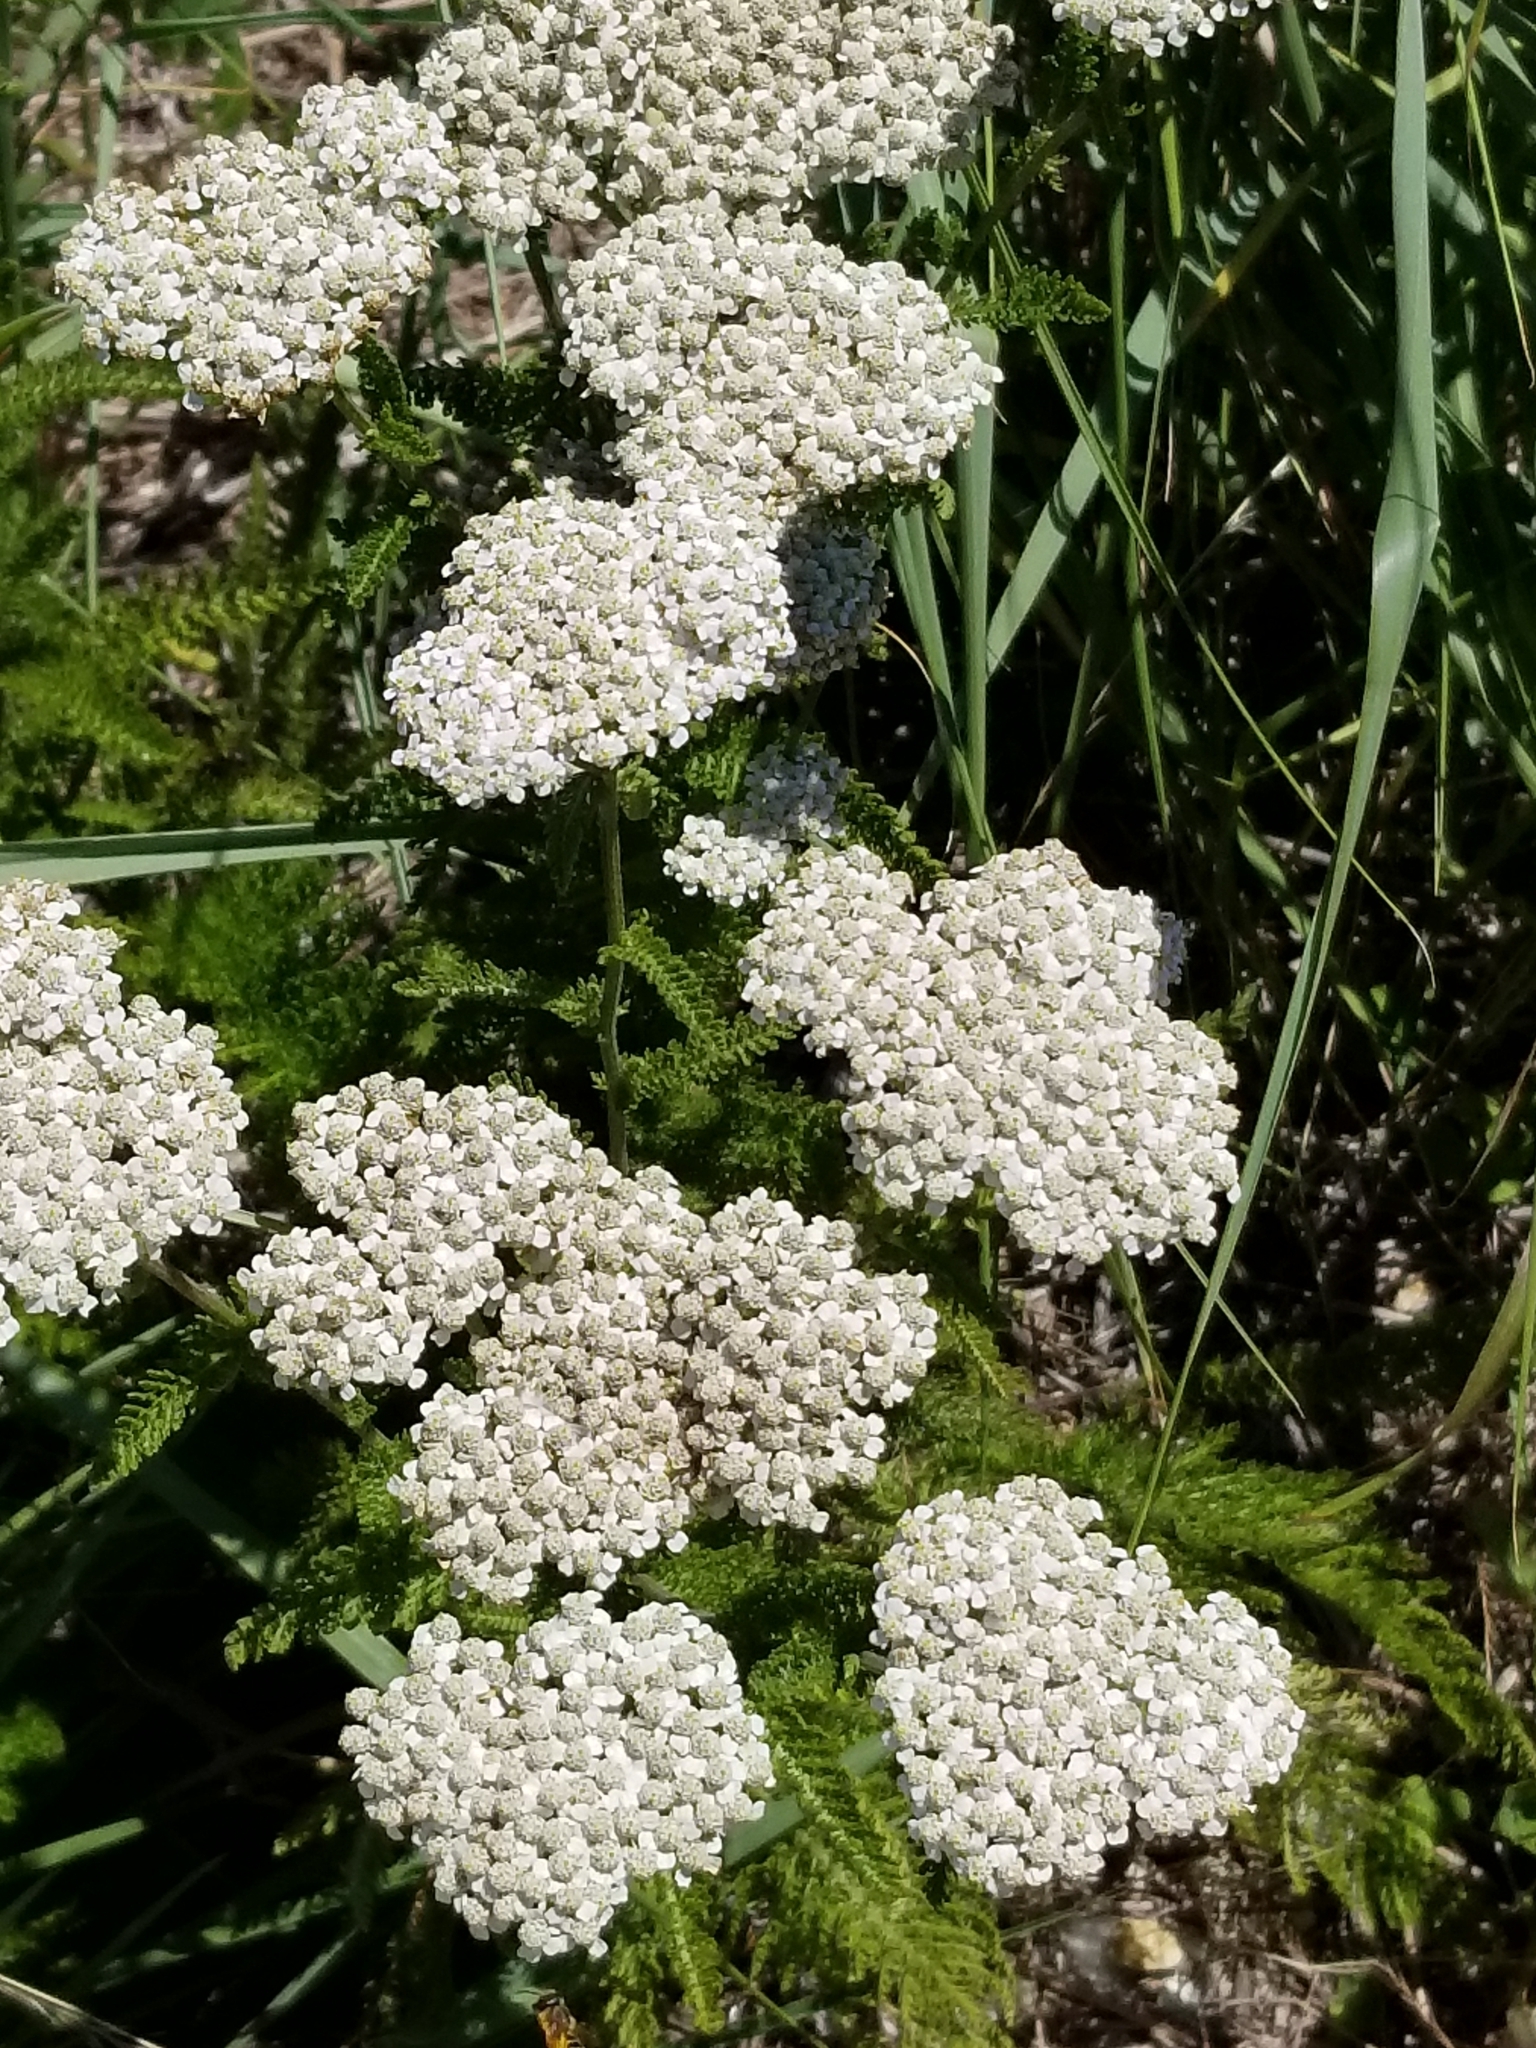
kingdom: Plantae
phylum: Tracheophyta
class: Magnoliopsida
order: Asterales
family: Asteraceae
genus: Achillea
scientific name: Achillea millefolium
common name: Yarrow
